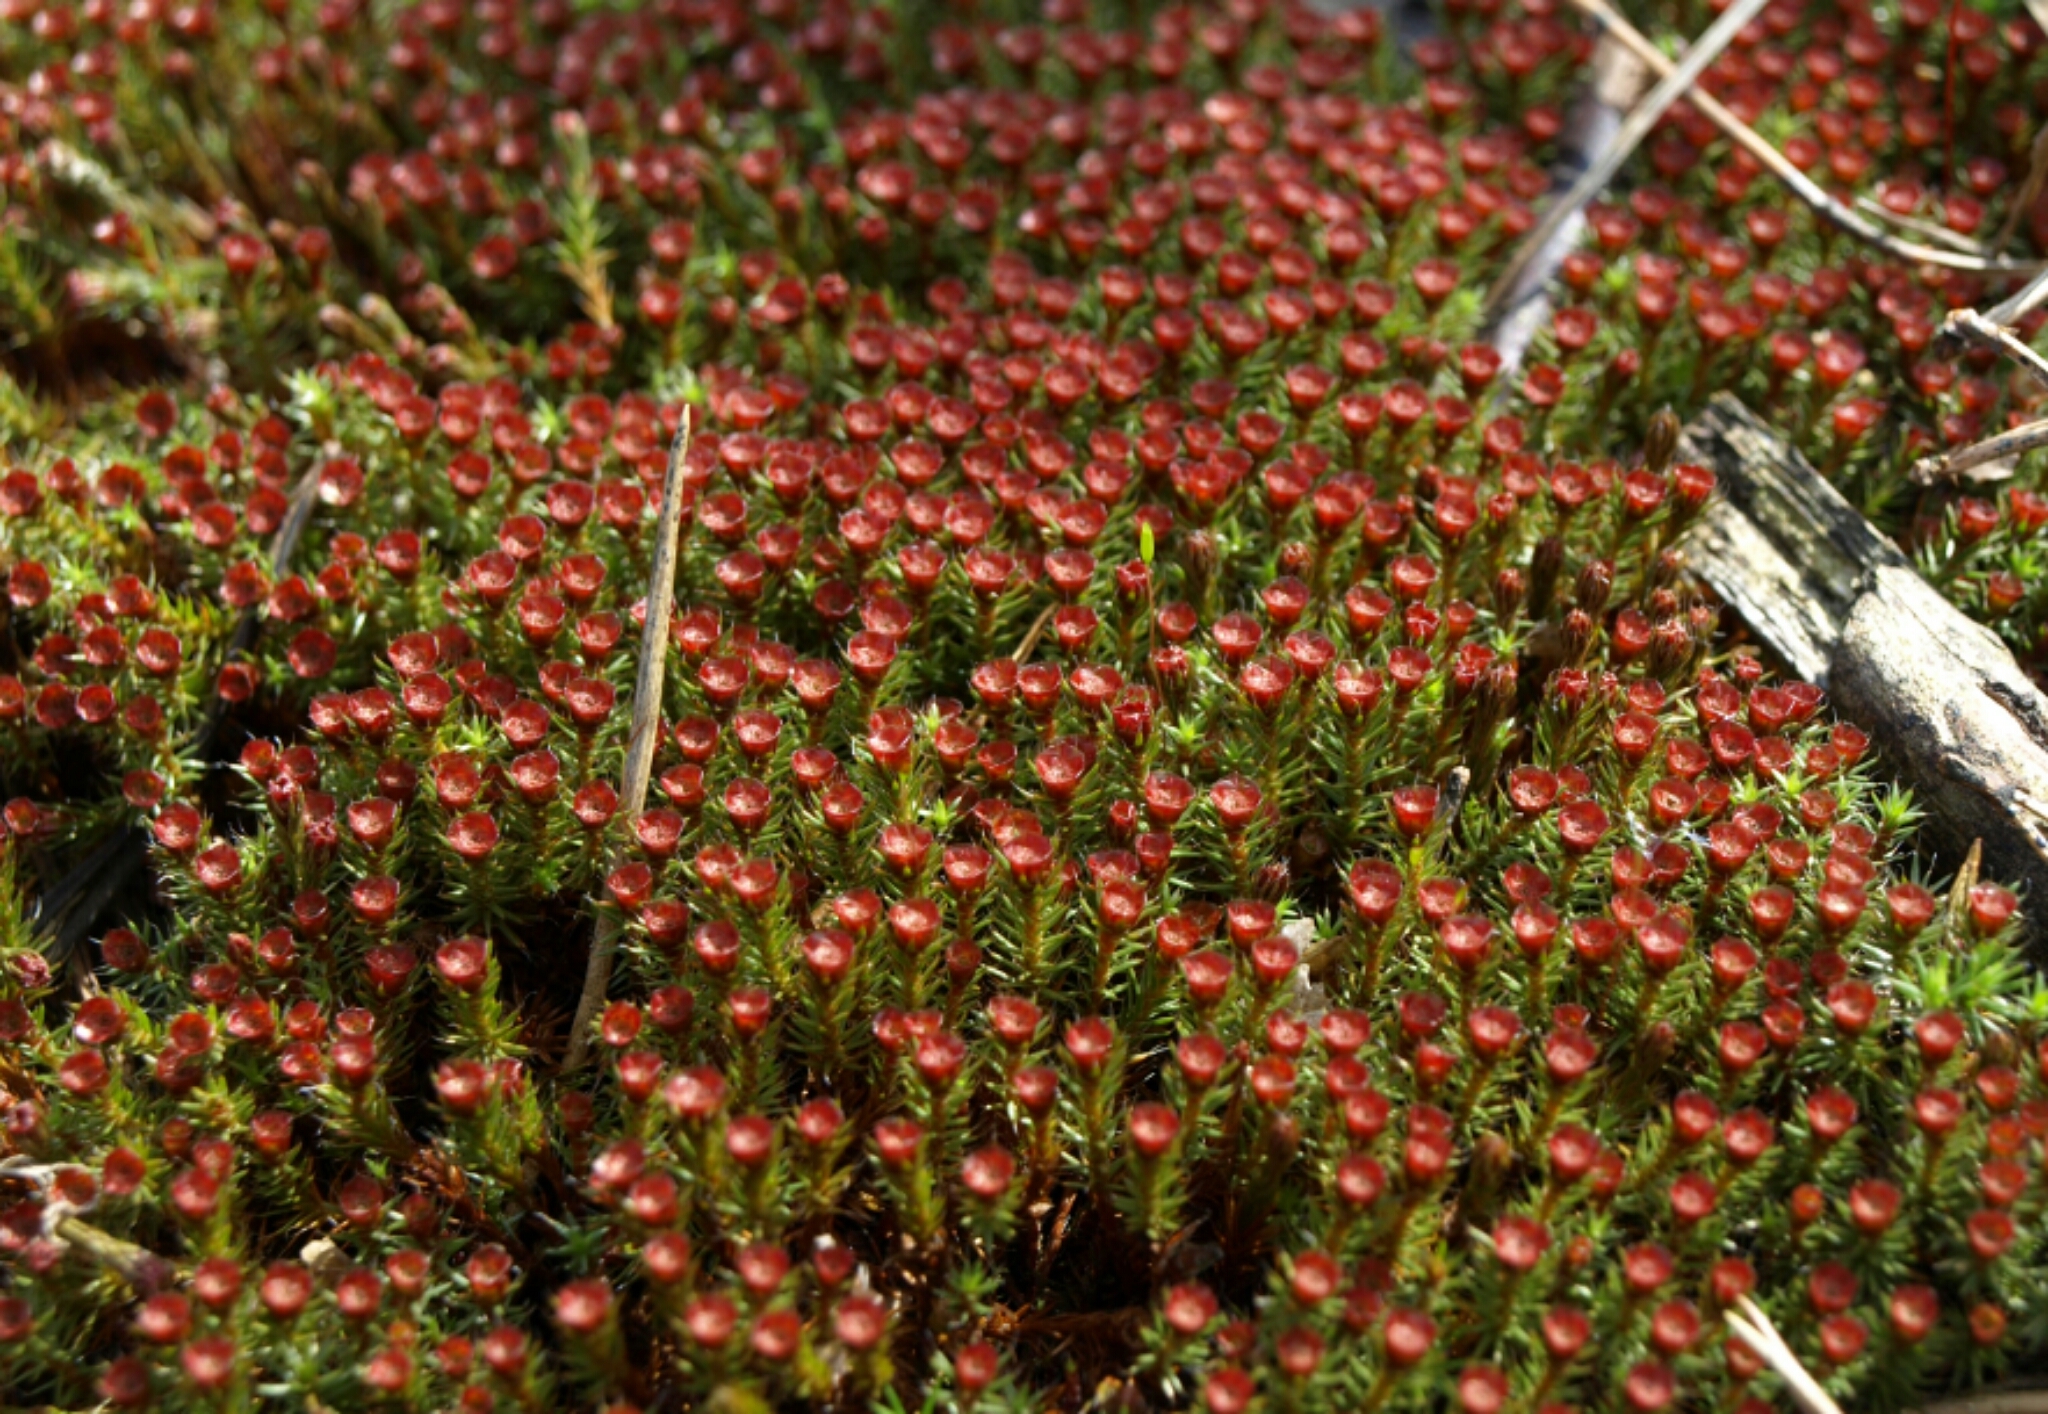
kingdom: Plantae
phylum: Bryophyta
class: Polytrichopsida
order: Polytrichales
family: Polytrichaceae
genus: Polytrichum
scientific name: Polytrichum piliferum
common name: Bristly haircap
